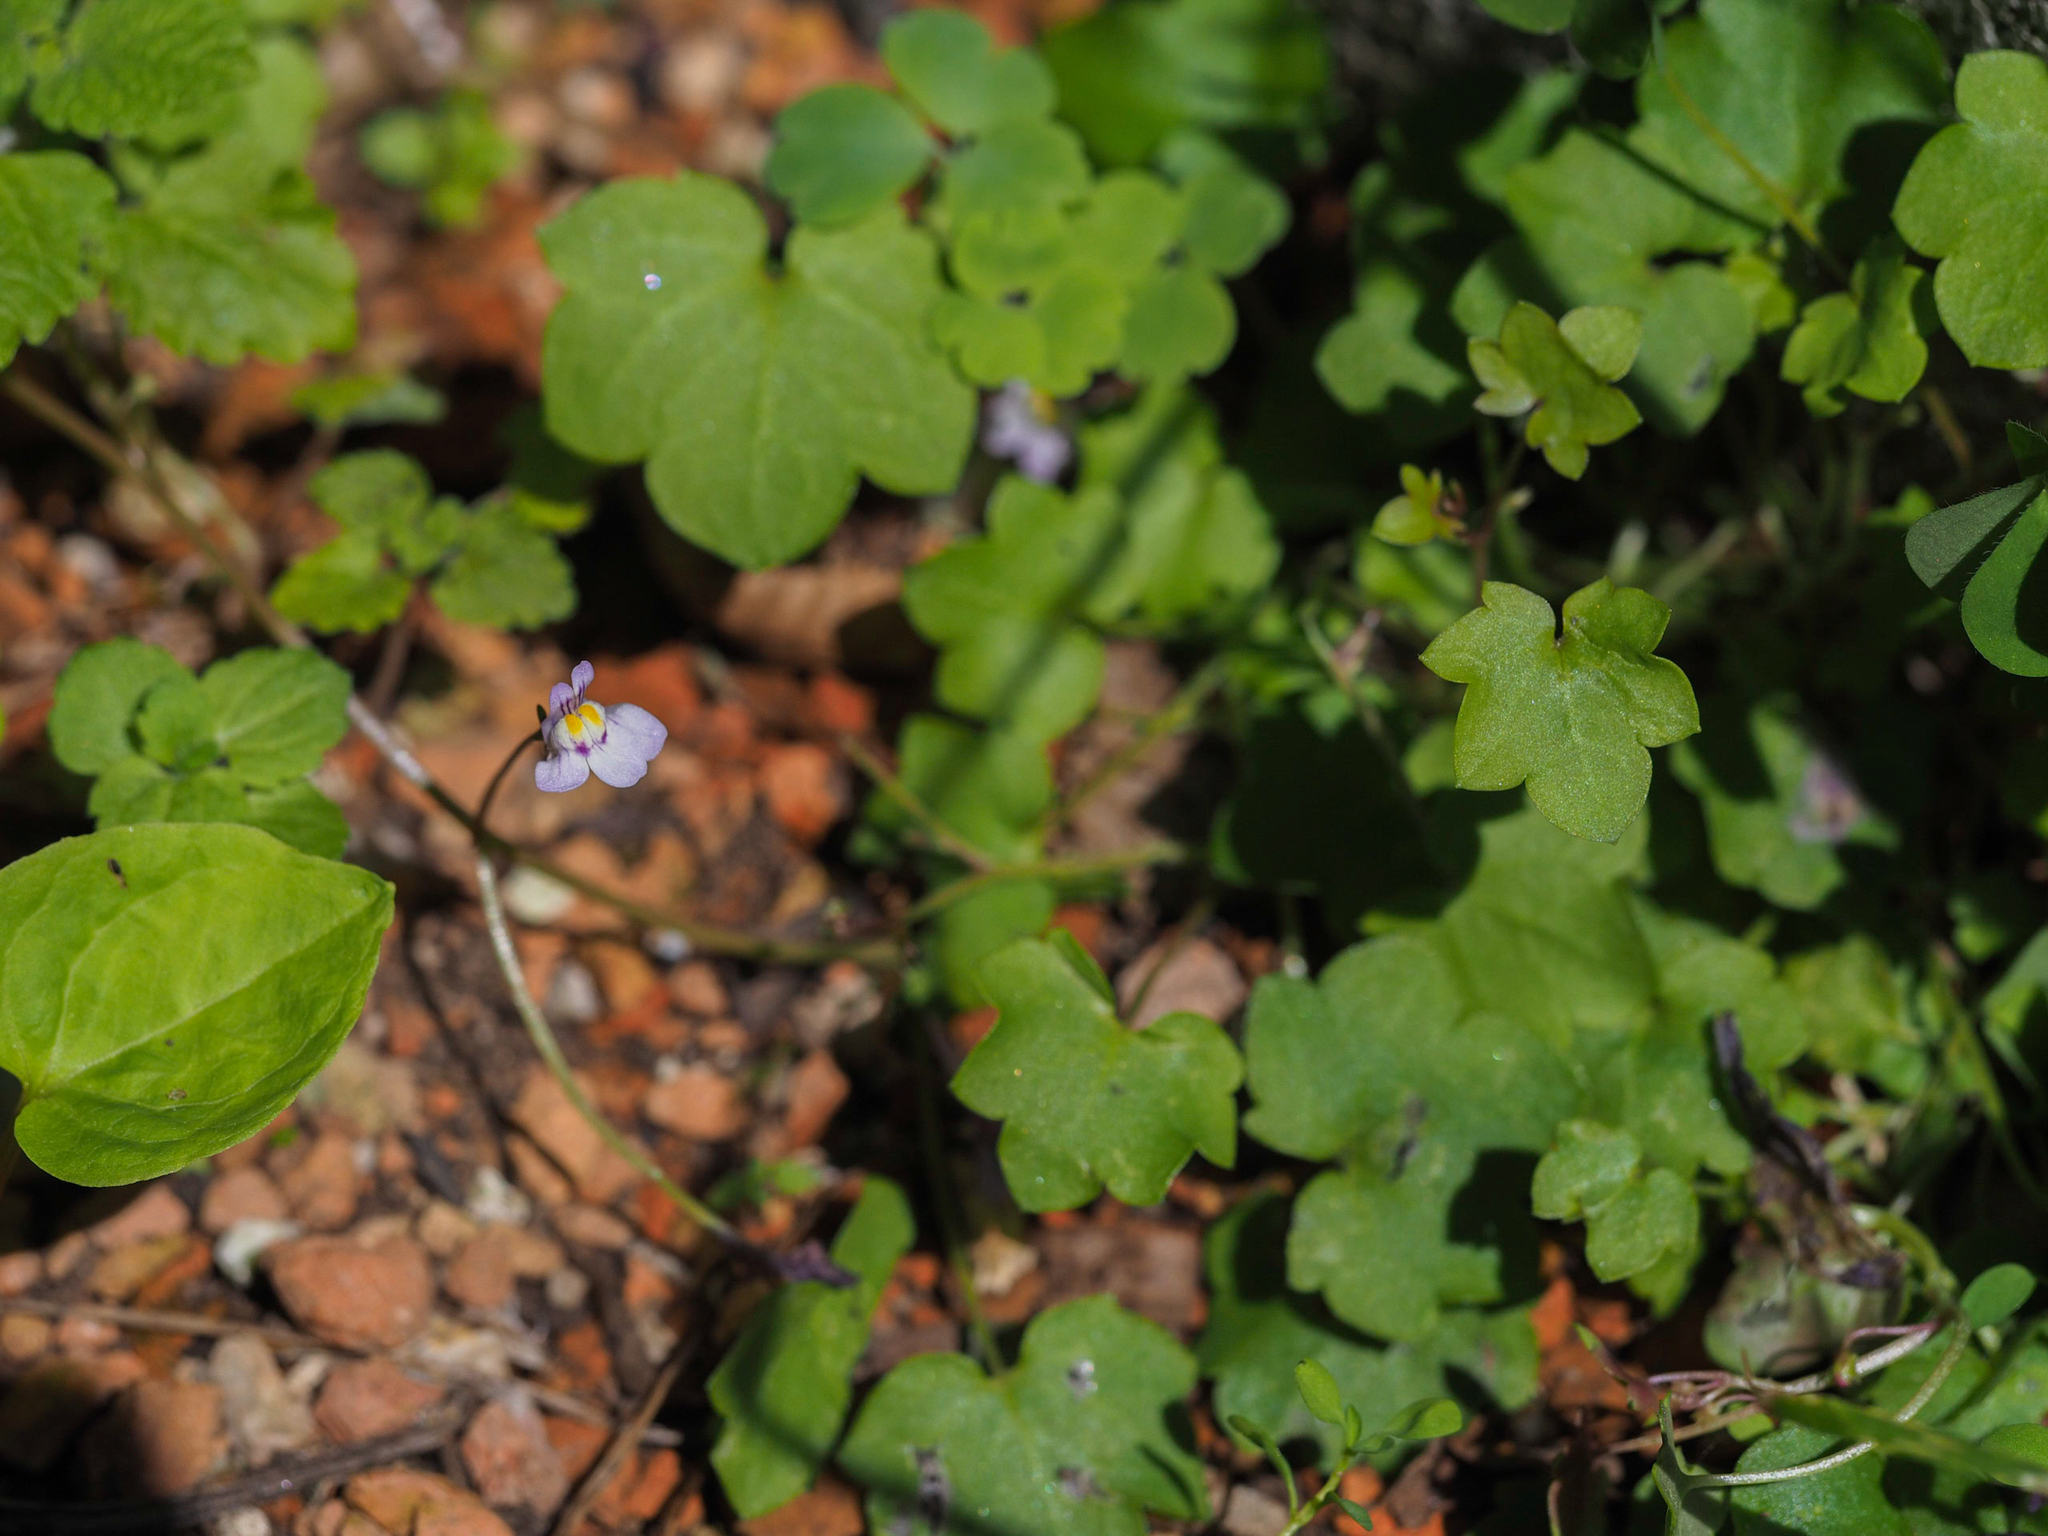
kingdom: Plantae
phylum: Tracheophyta
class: Magnoliopsida
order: Lamiales
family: Plantaginaceae
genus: Cymbalaria
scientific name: Cymbalaria muralis
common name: Ivy-leaved toadflax
